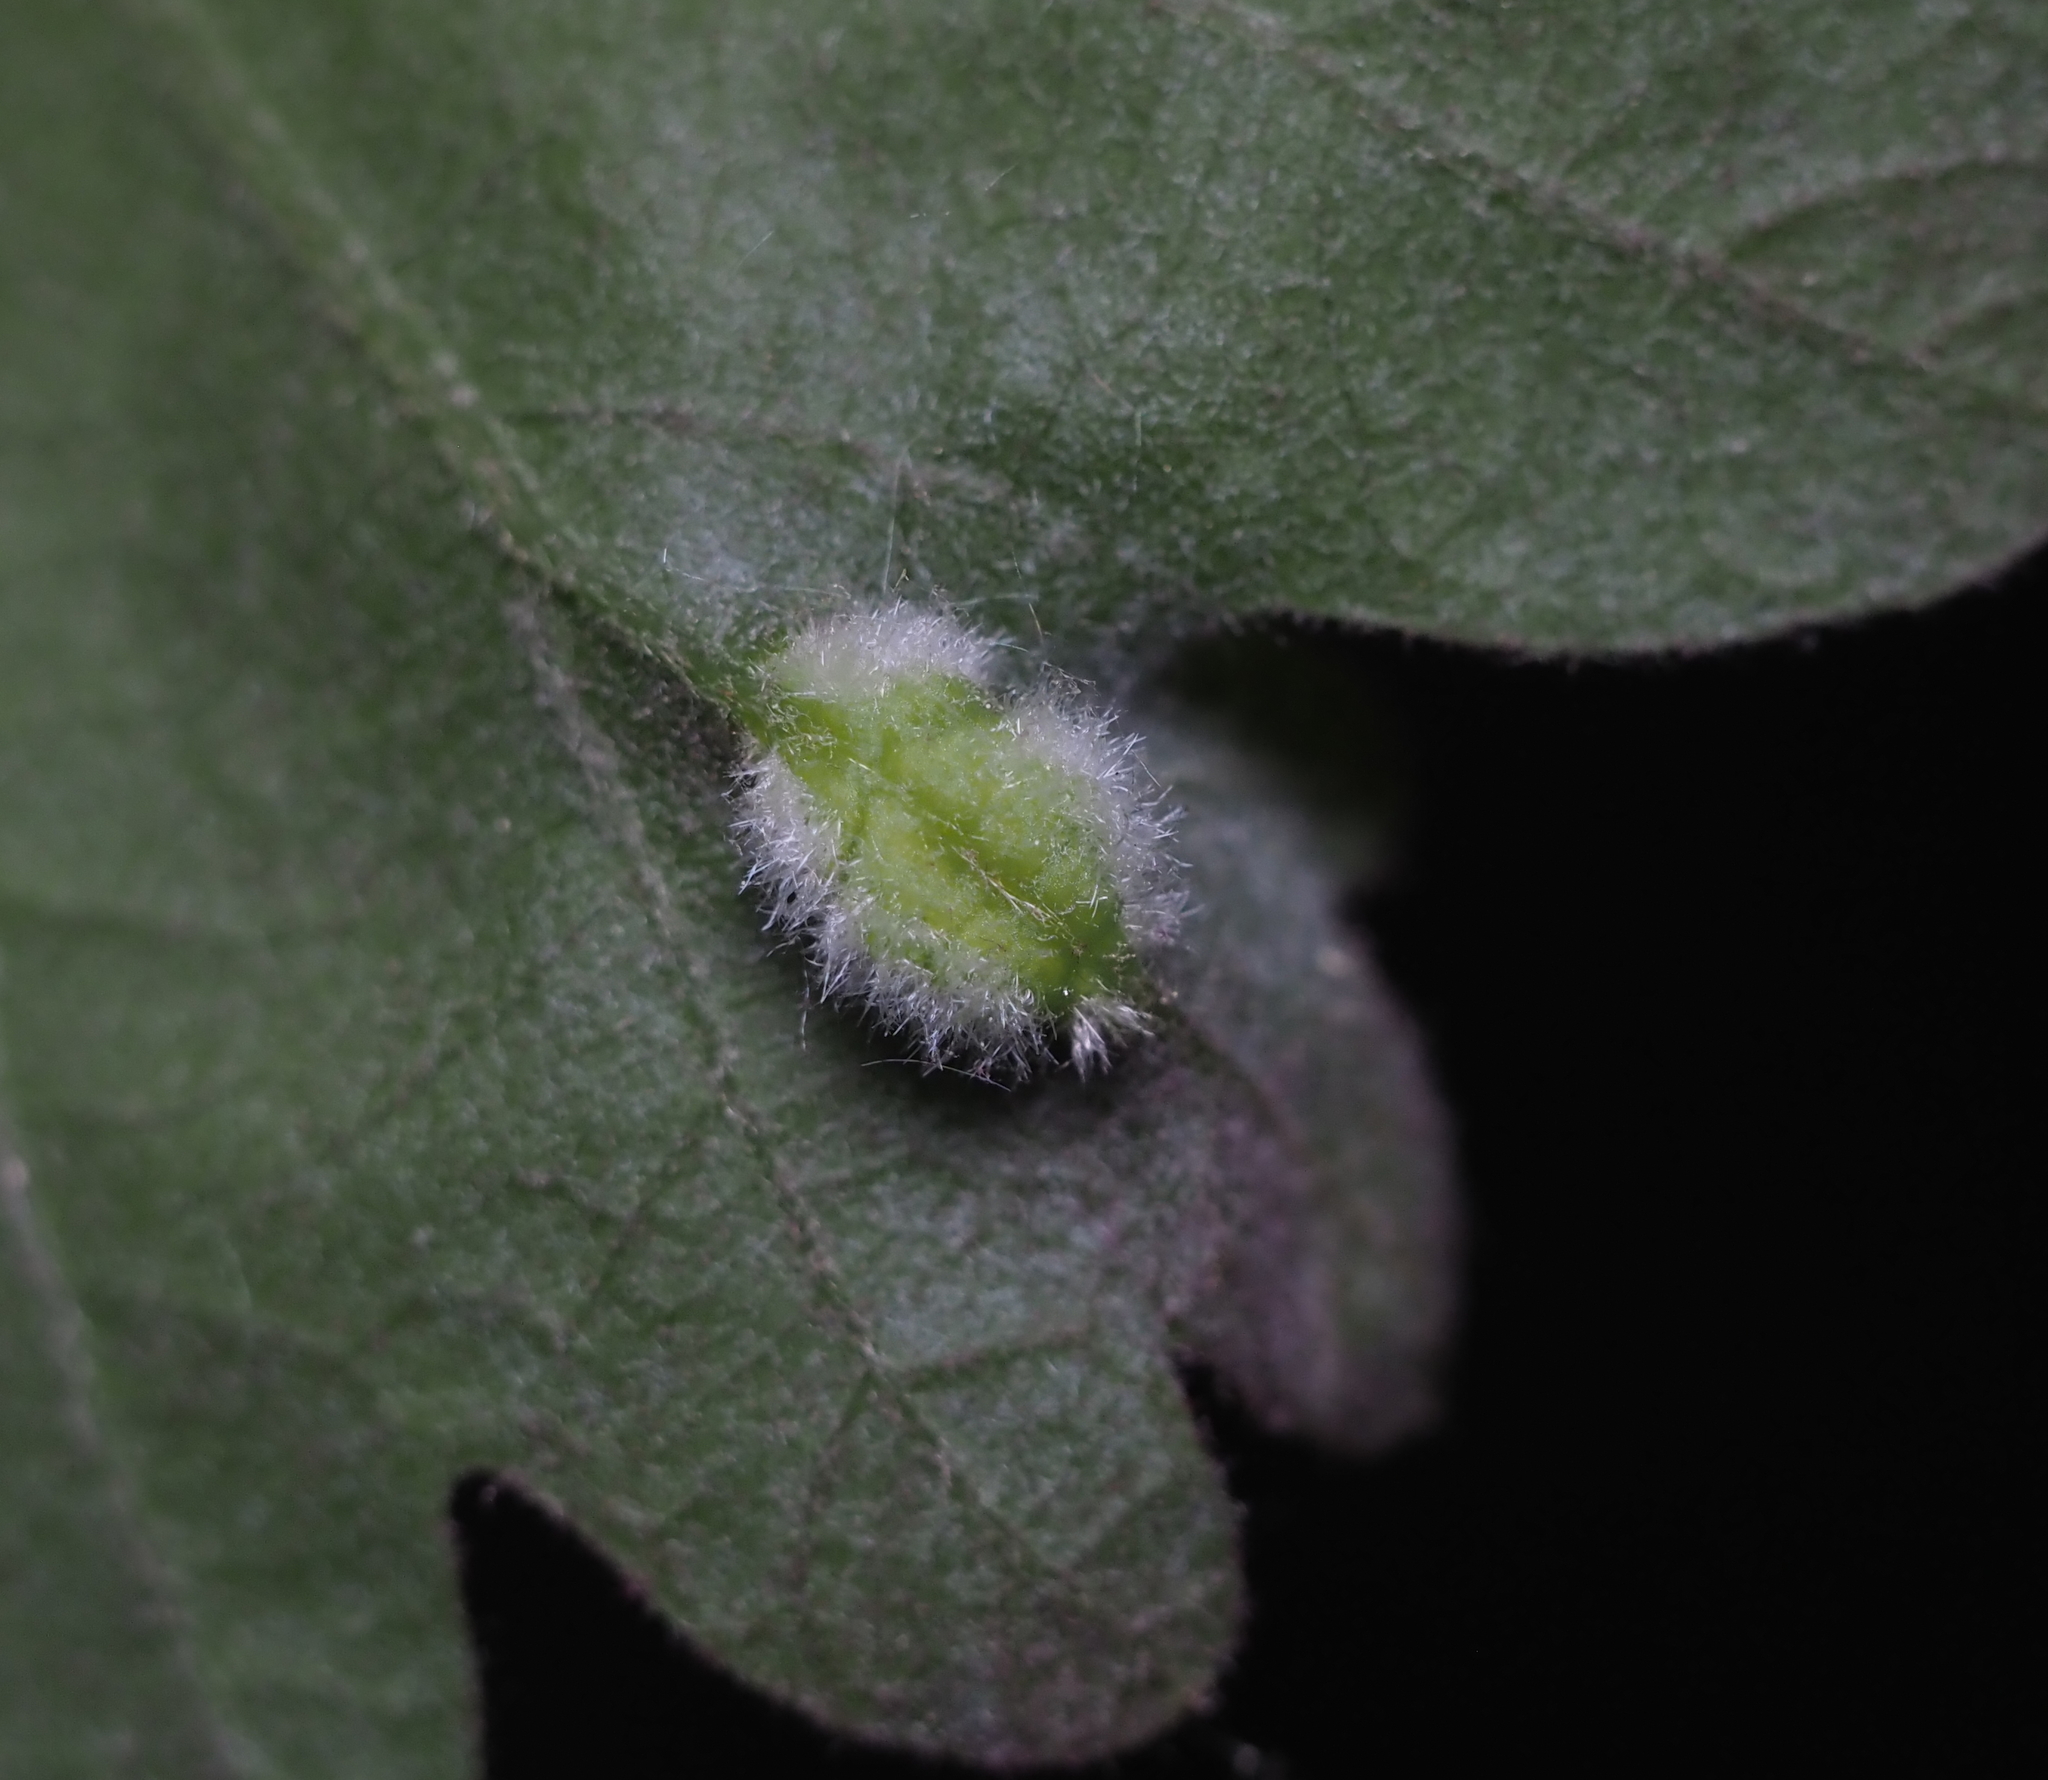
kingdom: Animalia
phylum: Arthropoda
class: Insecta
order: Diptera
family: Cecidomyiidae
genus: Macrodiplosis
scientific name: Macrodiplosis niveipila
